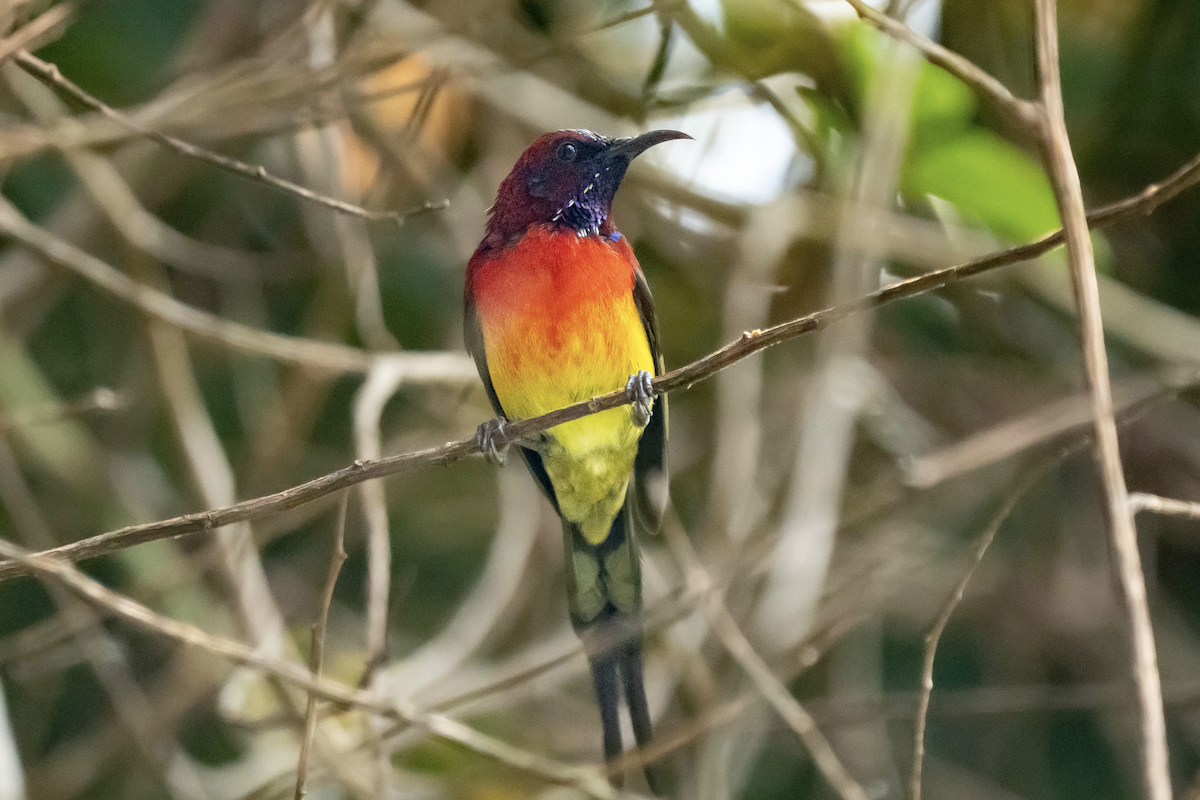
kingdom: Animalia
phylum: Chordata
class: Aves
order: Passeriformes
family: Nectariniidae
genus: Aethopyga
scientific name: Aethopyga gouldiae
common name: Mrs. gould's sunbird
